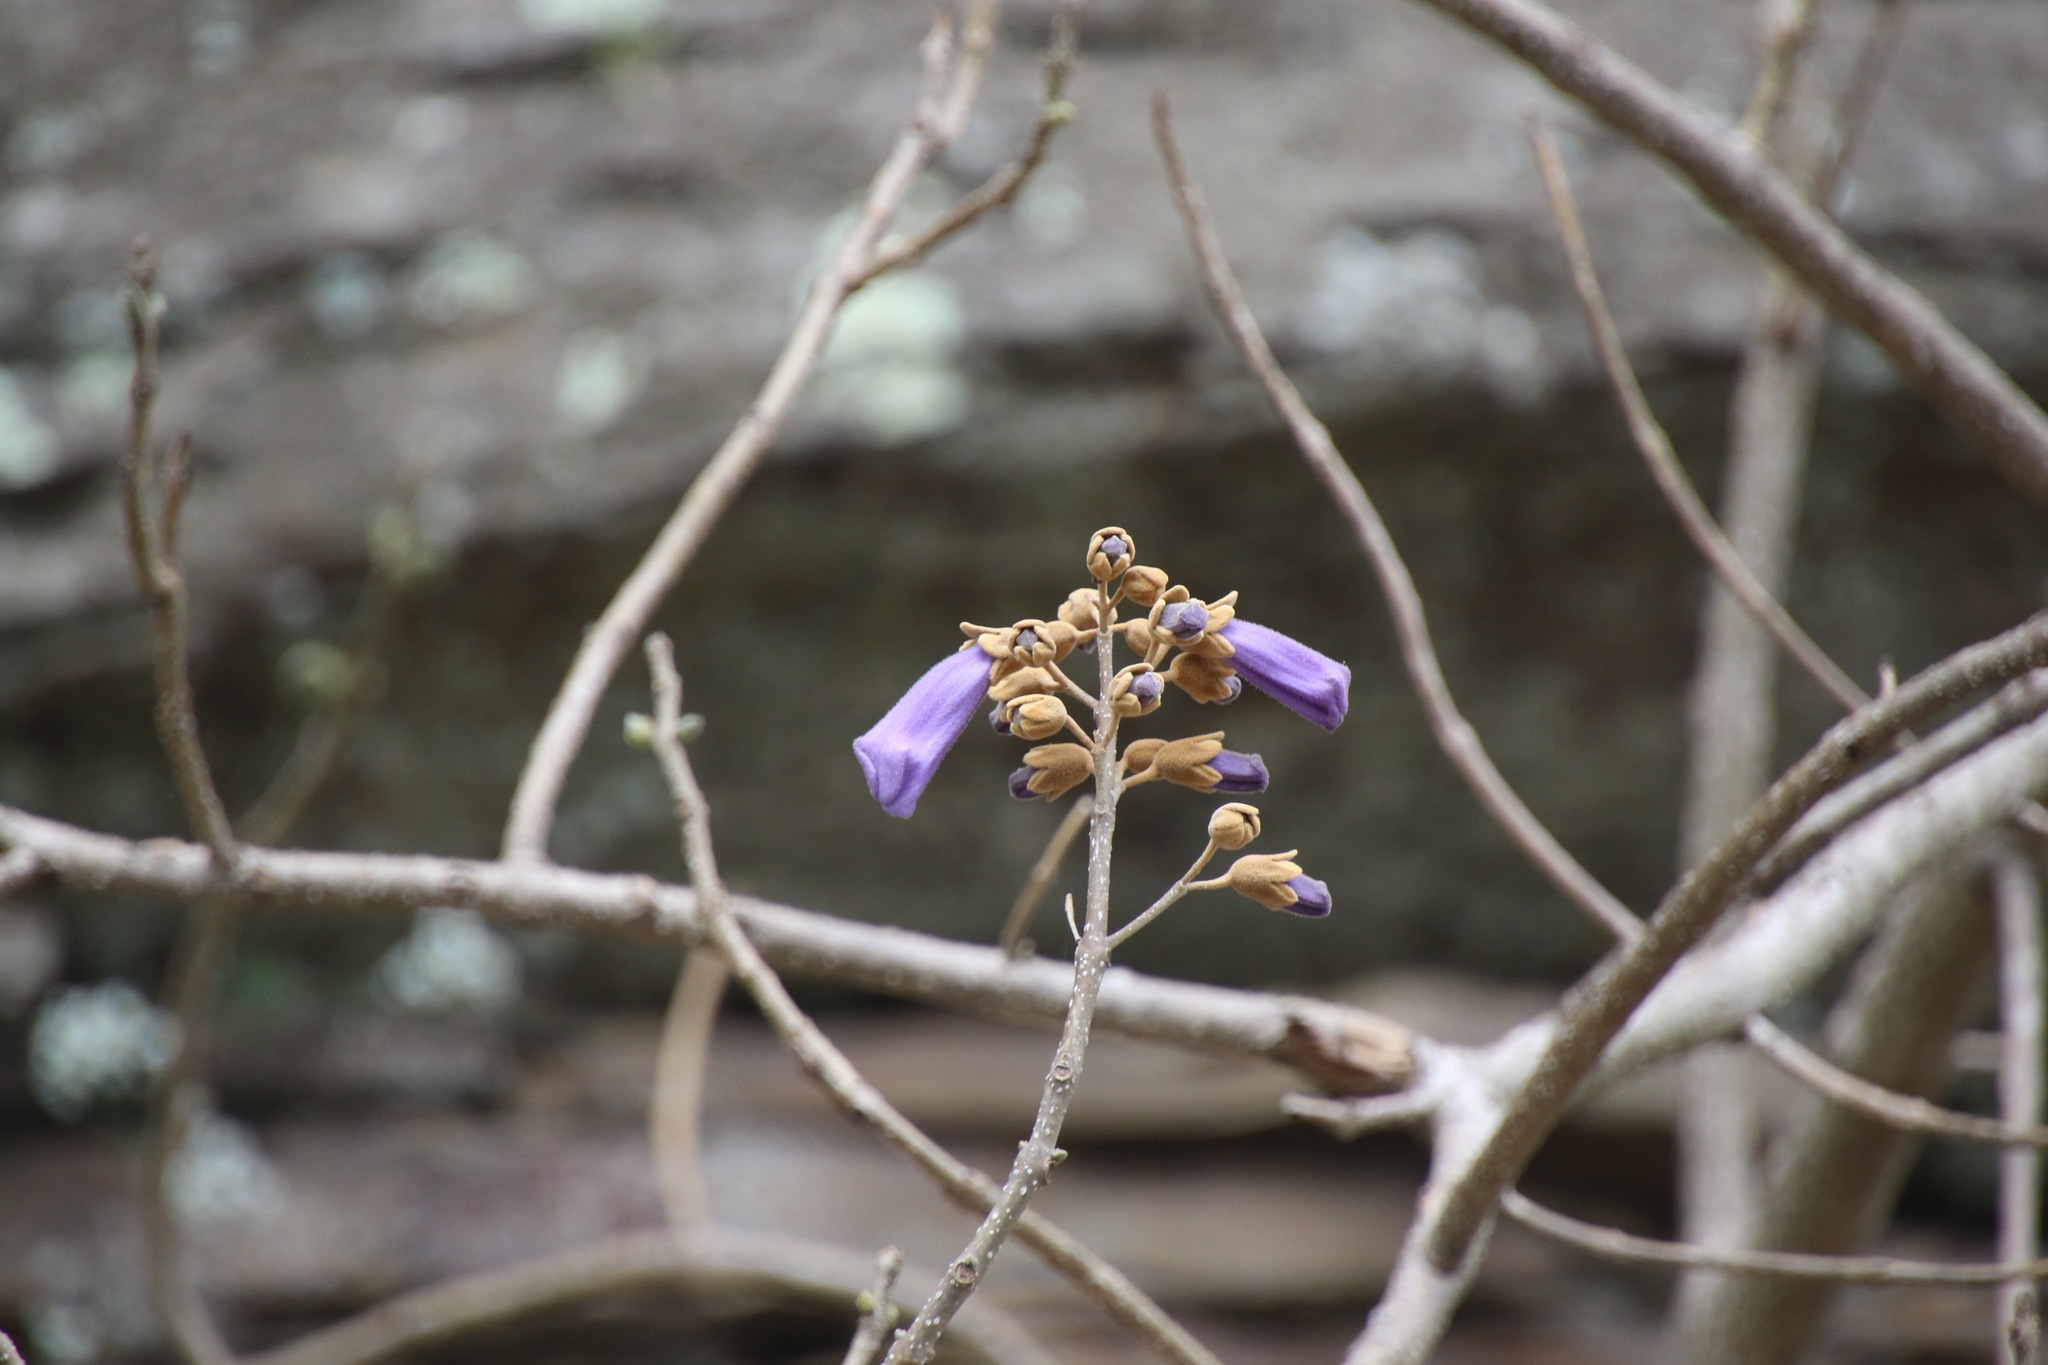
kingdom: Plantae
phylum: Tracheophyta
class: Magnoliopsida
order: Lamiales
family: Paulowniaceae
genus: Paulownia
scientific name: Paulownia tomentosa
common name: Foxglove-tree
